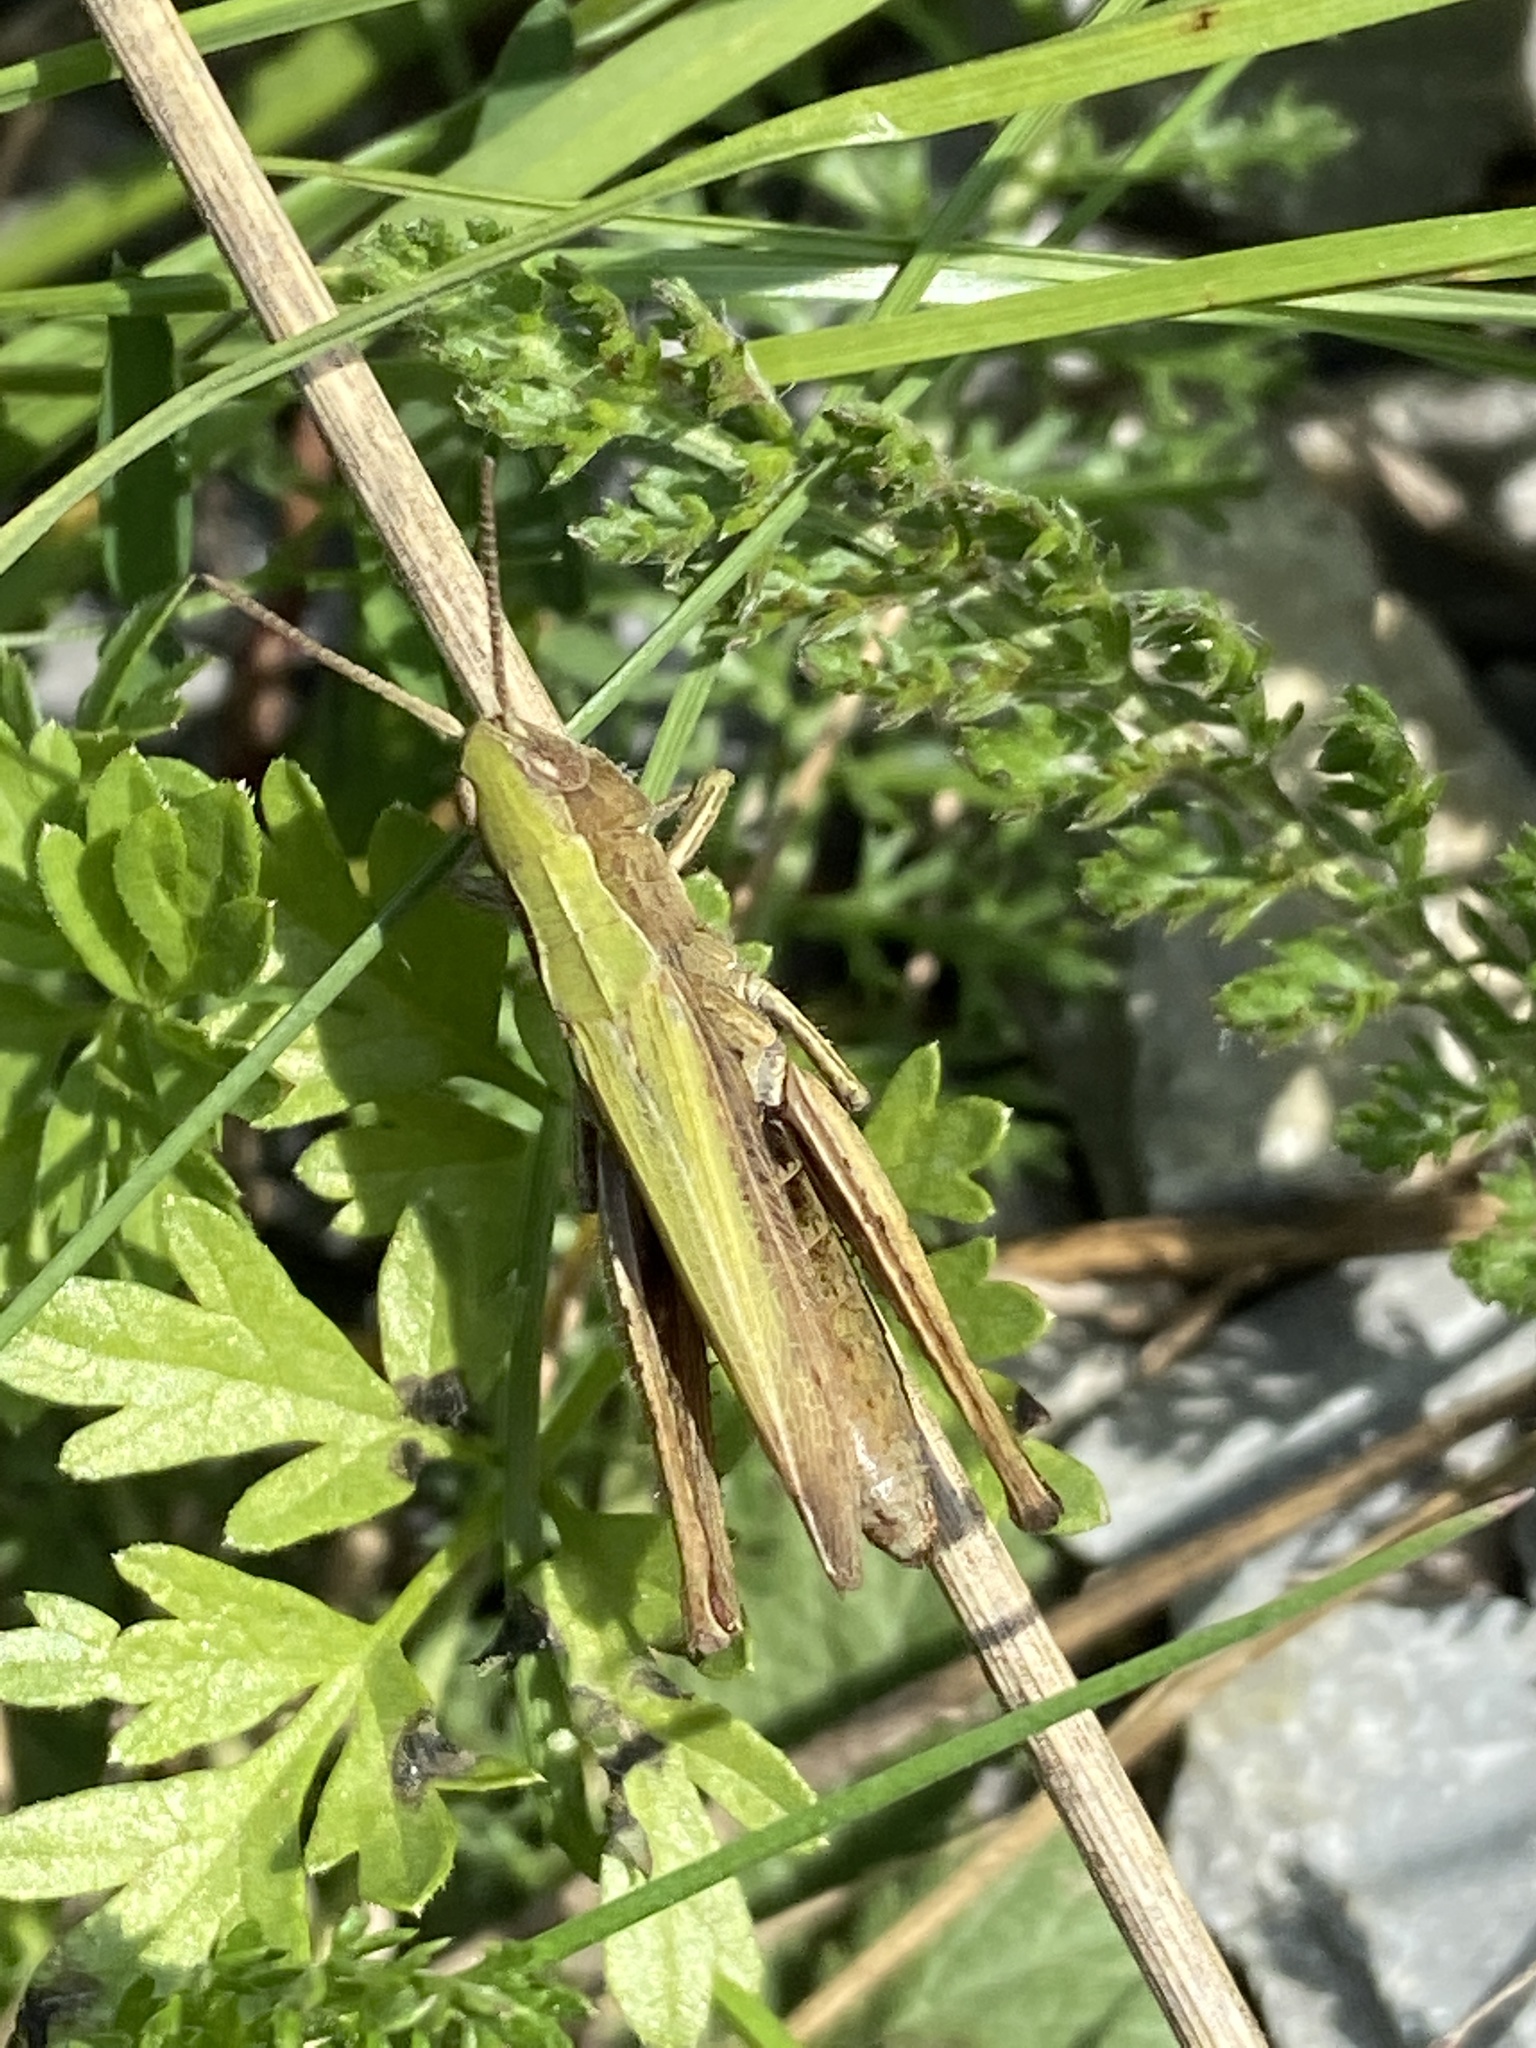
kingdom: Animalia
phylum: Arthropoda
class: Insecta
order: Orthoptera
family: Acrididae
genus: Chorthippus
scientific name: Chorthippus dorsatus
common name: Steppe grasshopper
